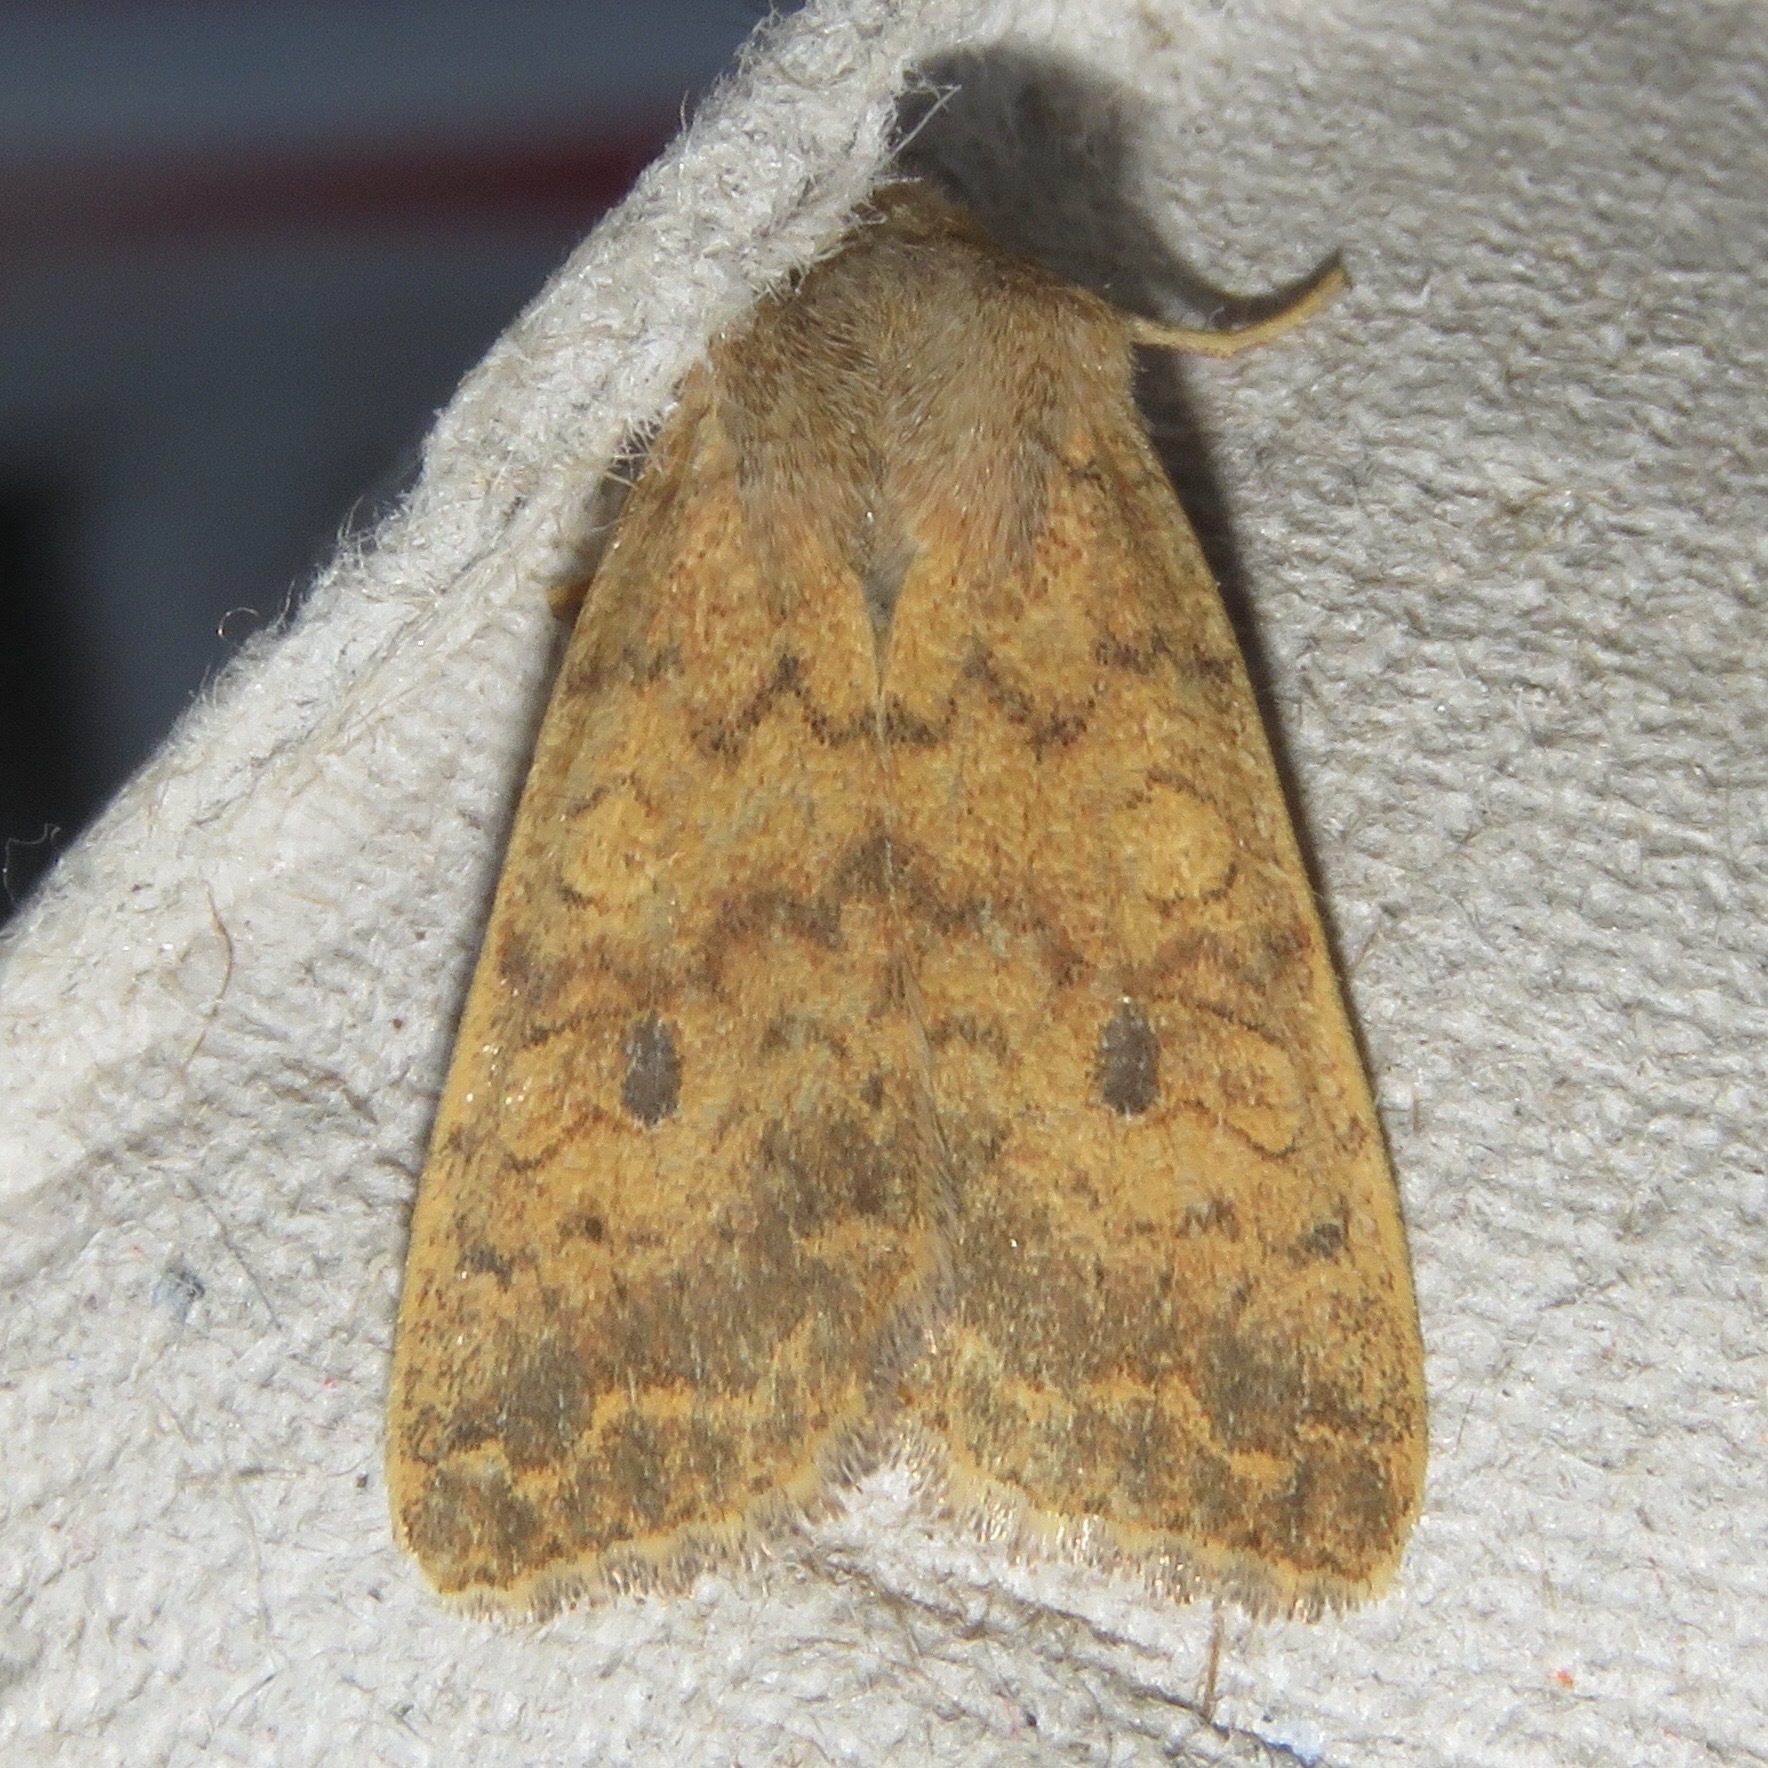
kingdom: Animalia
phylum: Arthropoda
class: Insecta
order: Lepidoptera
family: Noctuidae
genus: Agrochola
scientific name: Agrochola bicolorago
